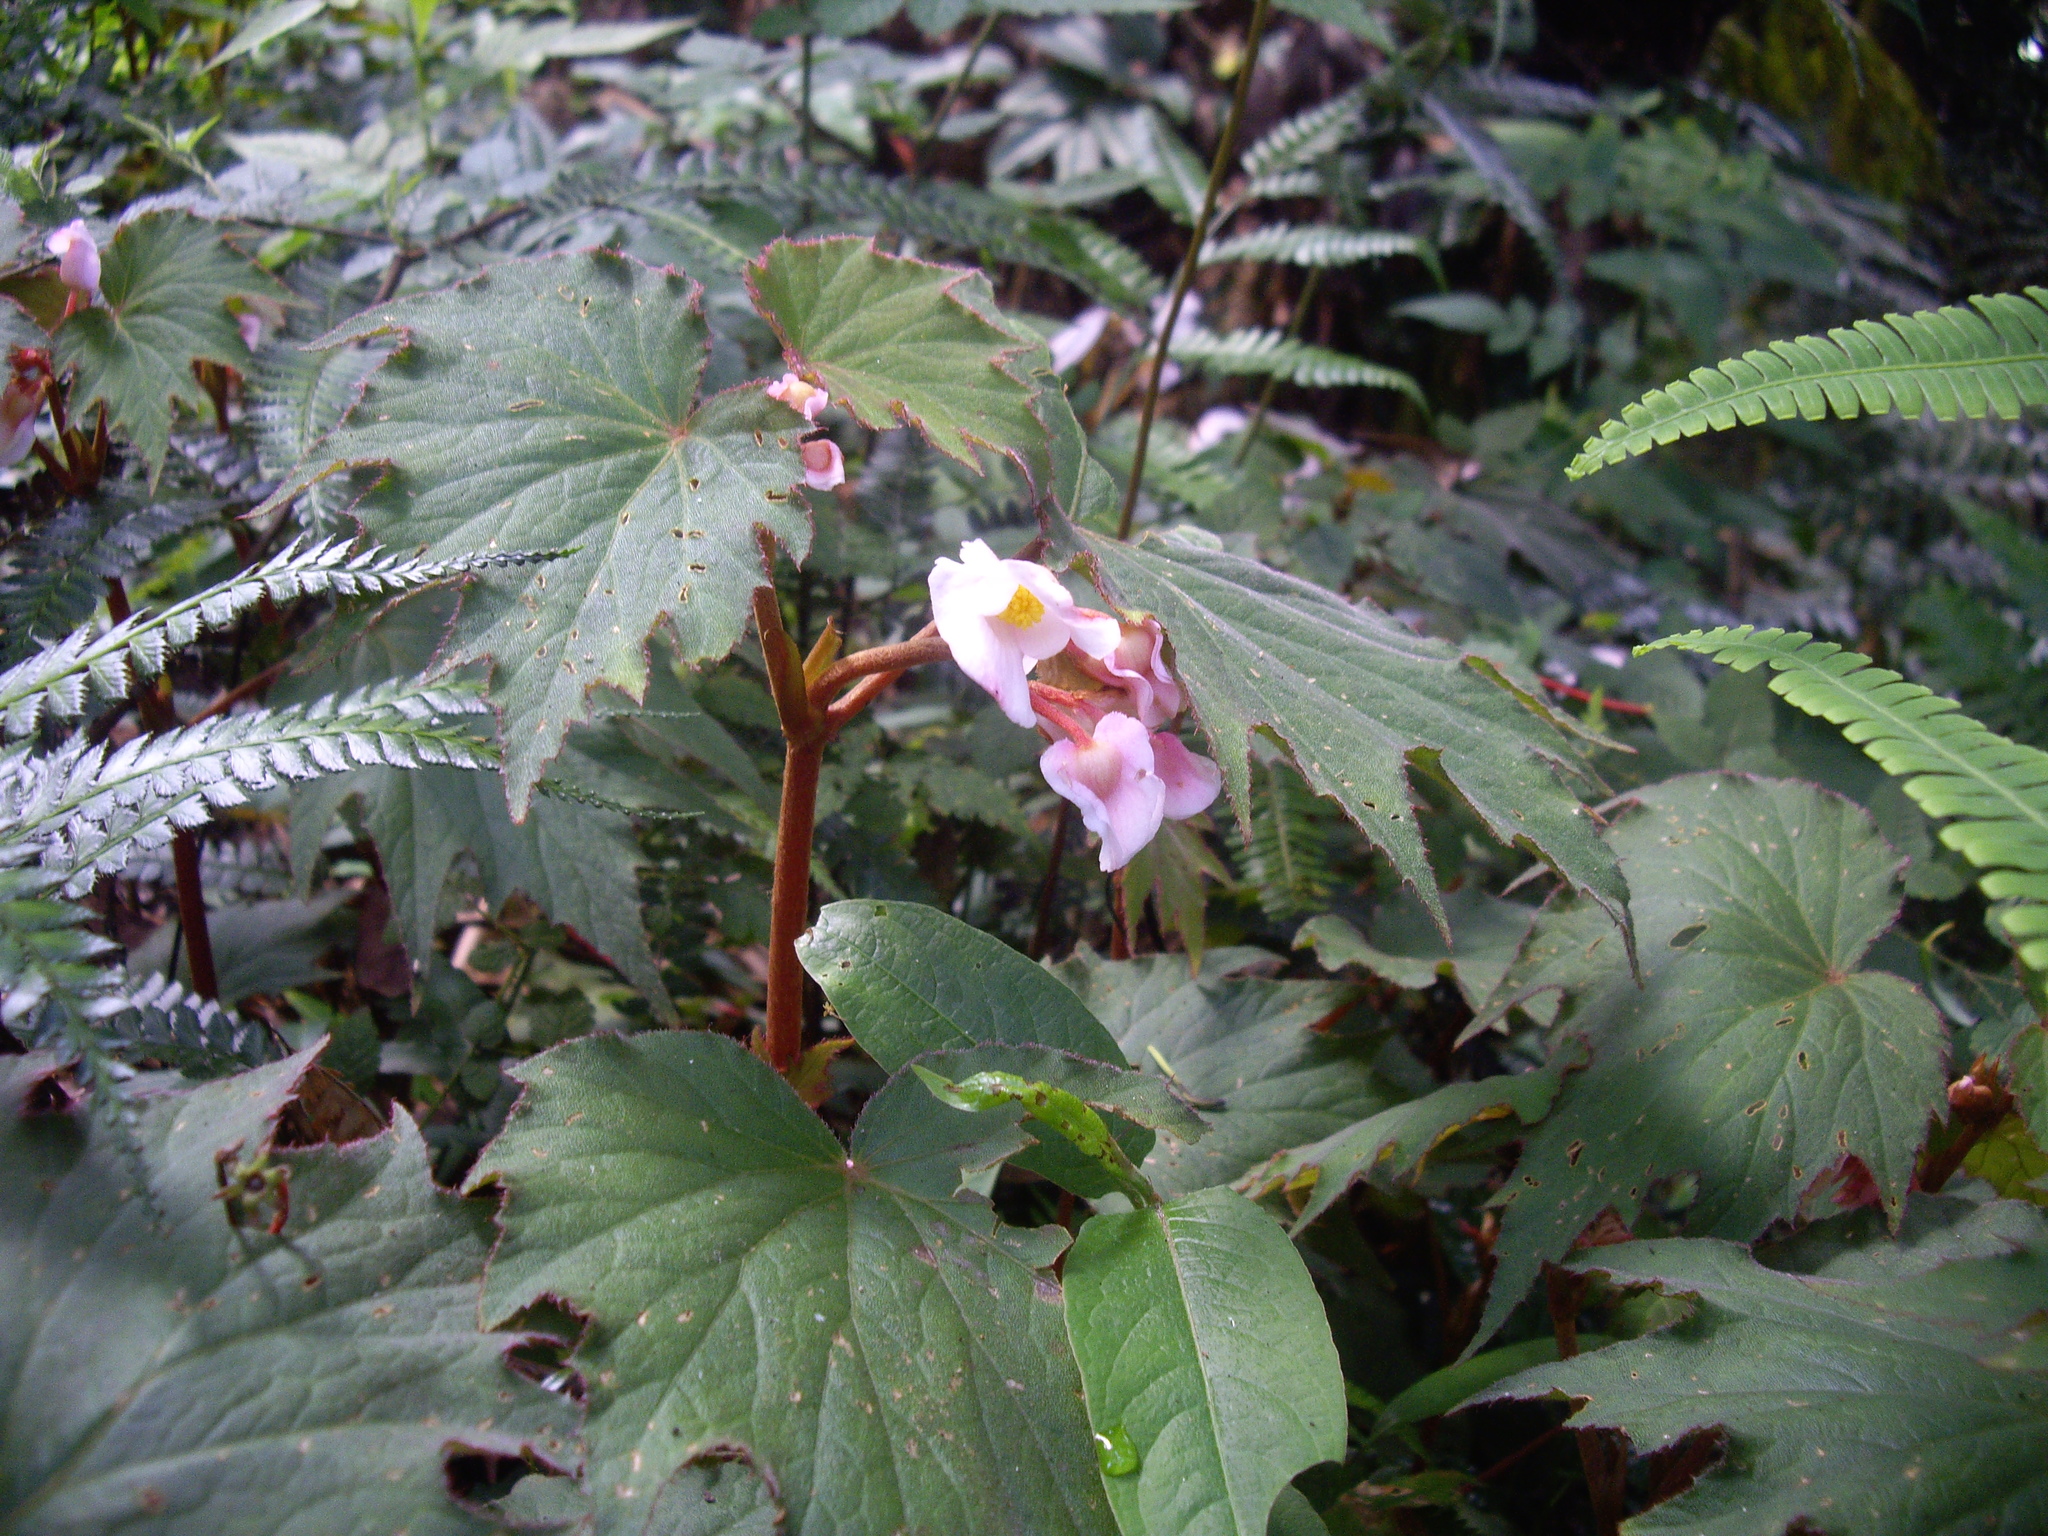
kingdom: Plantae
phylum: Tracheophyta
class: Magnoliopsida
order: Cucurbitales
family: Begoniaceae
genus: Begonia
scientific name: Begonia palmata
